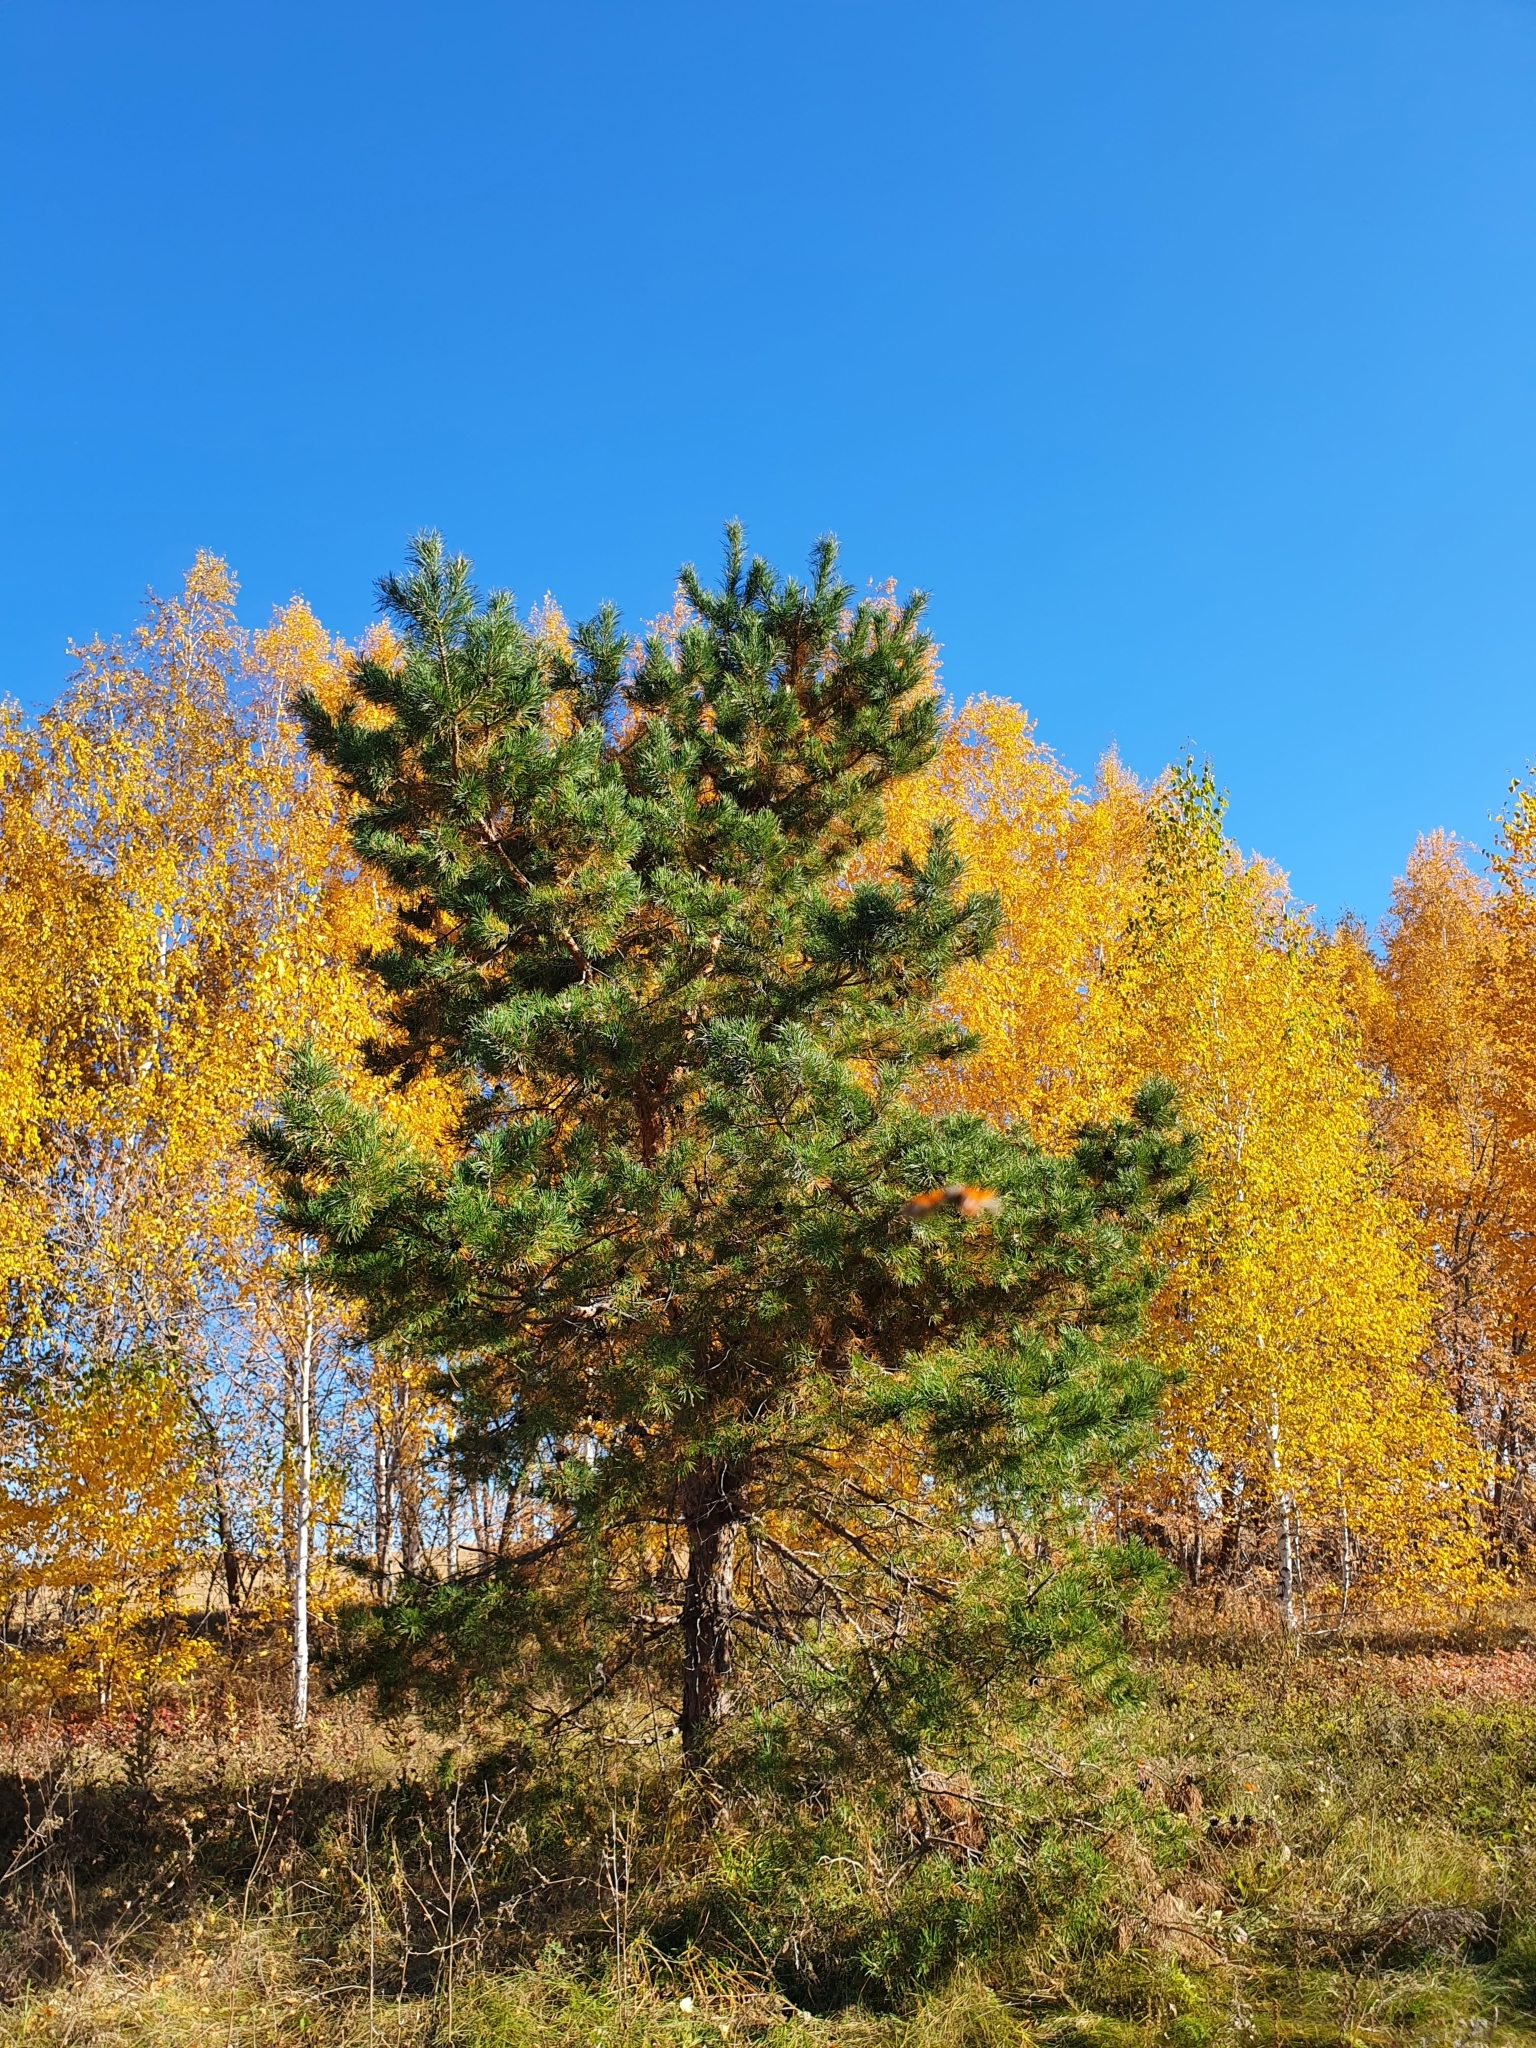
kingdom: Plantae
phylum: Tracheophyta
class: Pinopsida
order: Pinales
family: Pinaceae
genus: Pinus
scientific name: Pinus sylvestris
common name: Scots pine
